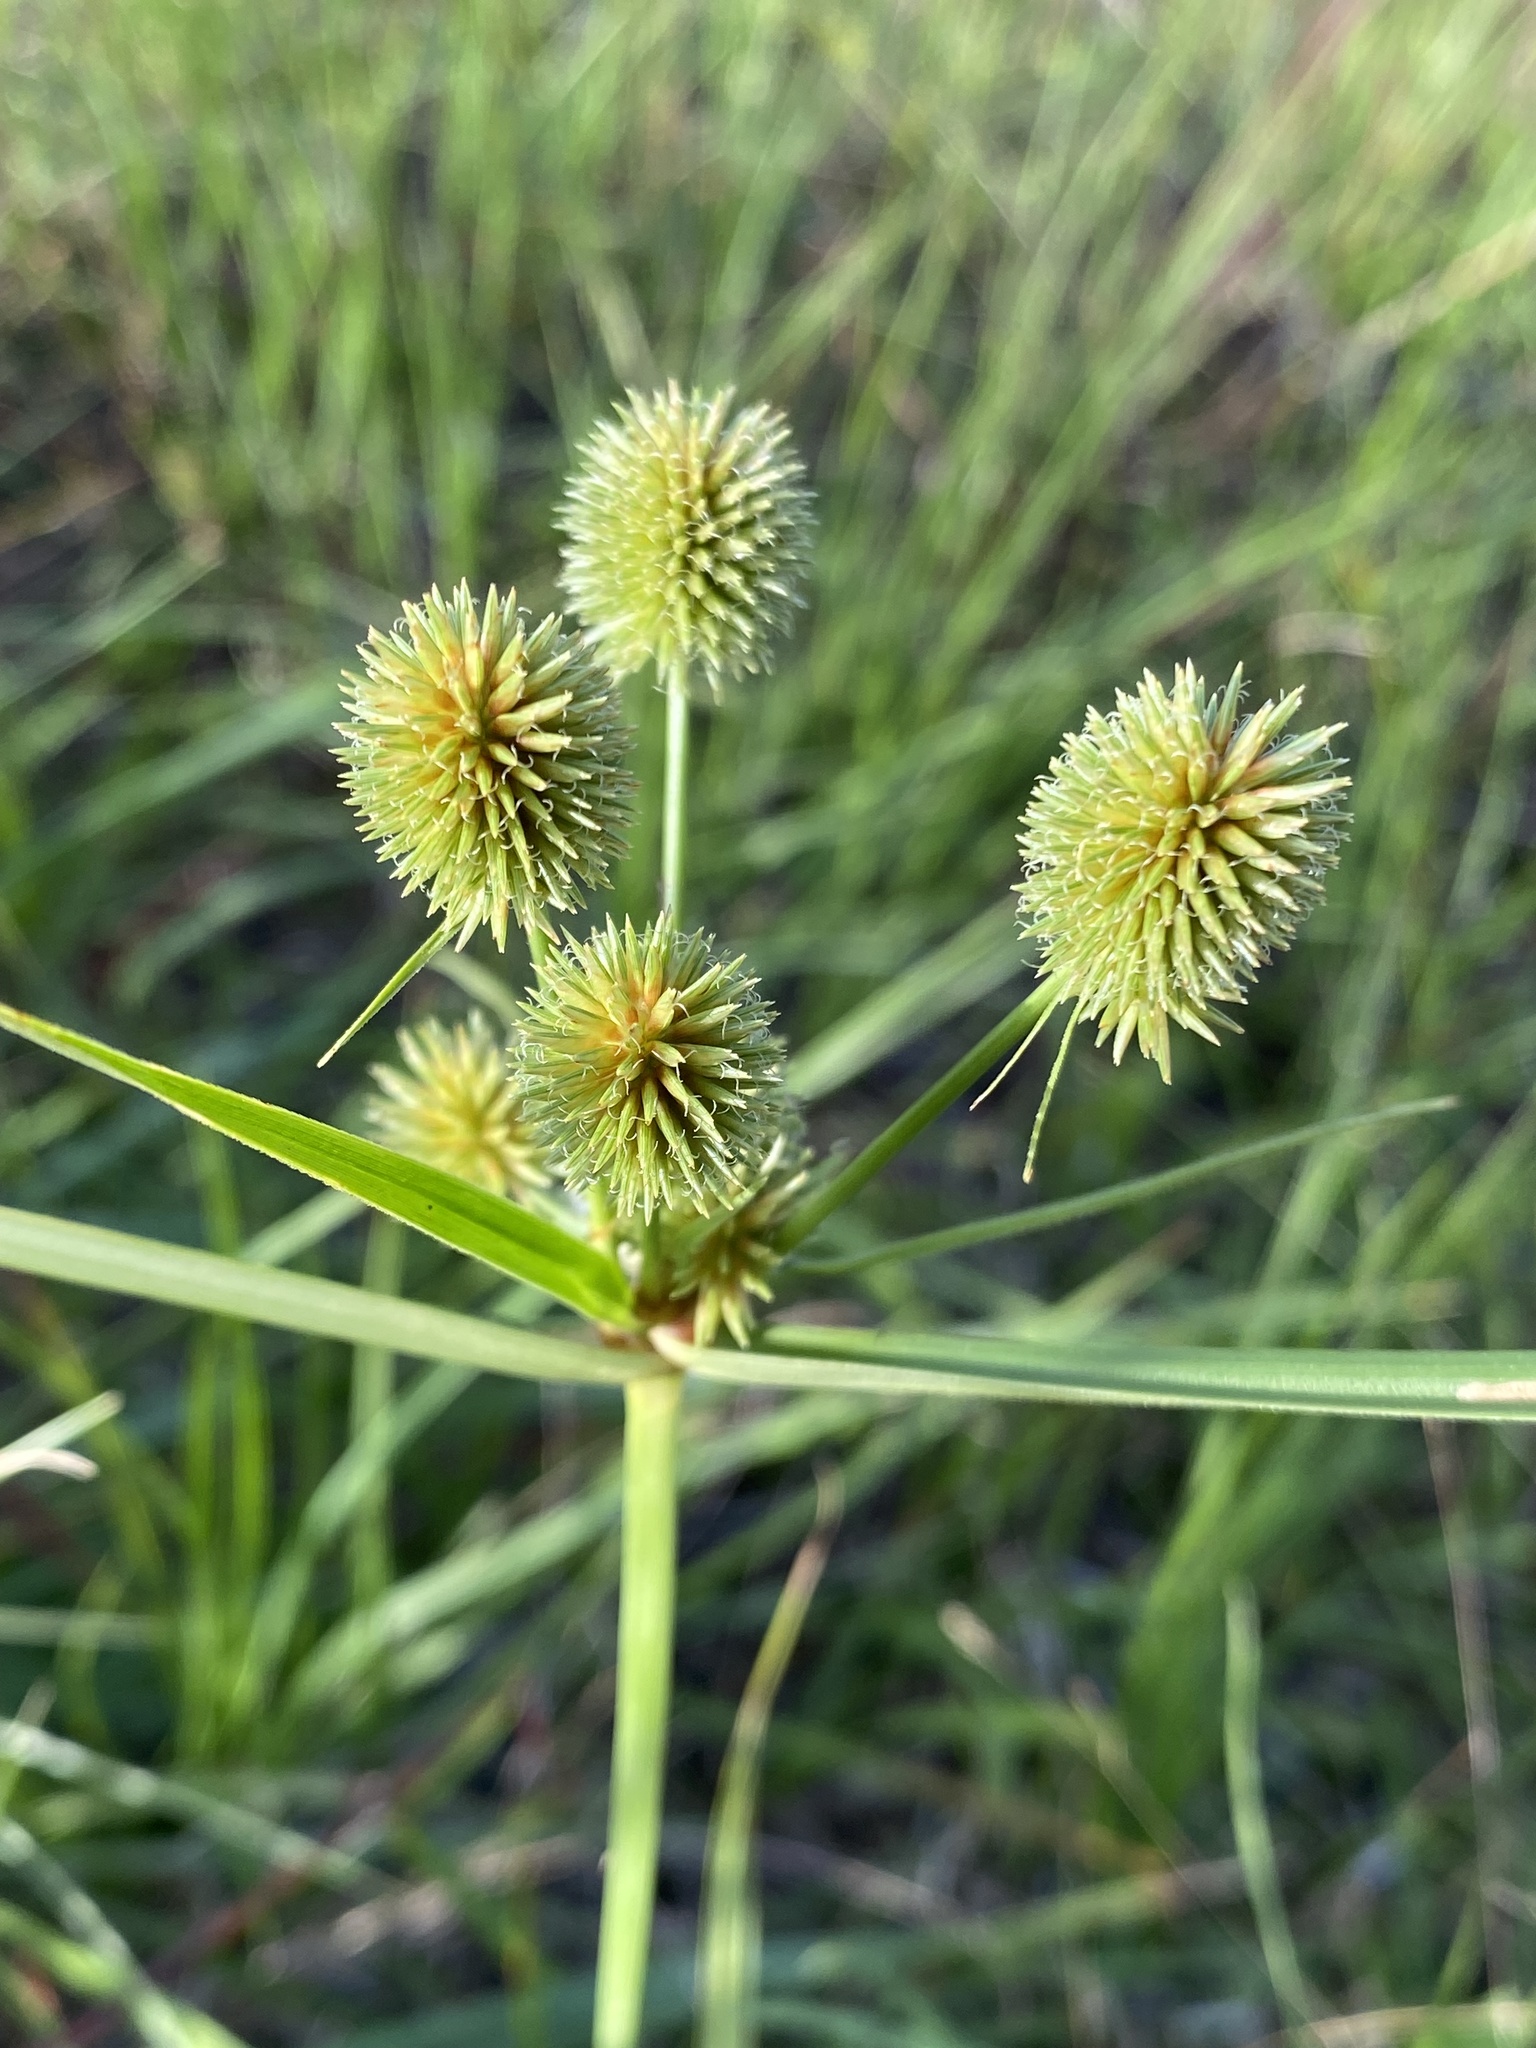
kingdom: Plantae
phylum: Tracheophyta
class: Liliopsida
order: Poales
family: Cyperaceae
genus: Cyperus
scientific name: Cyperus echinatus
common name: Teasel sedge
